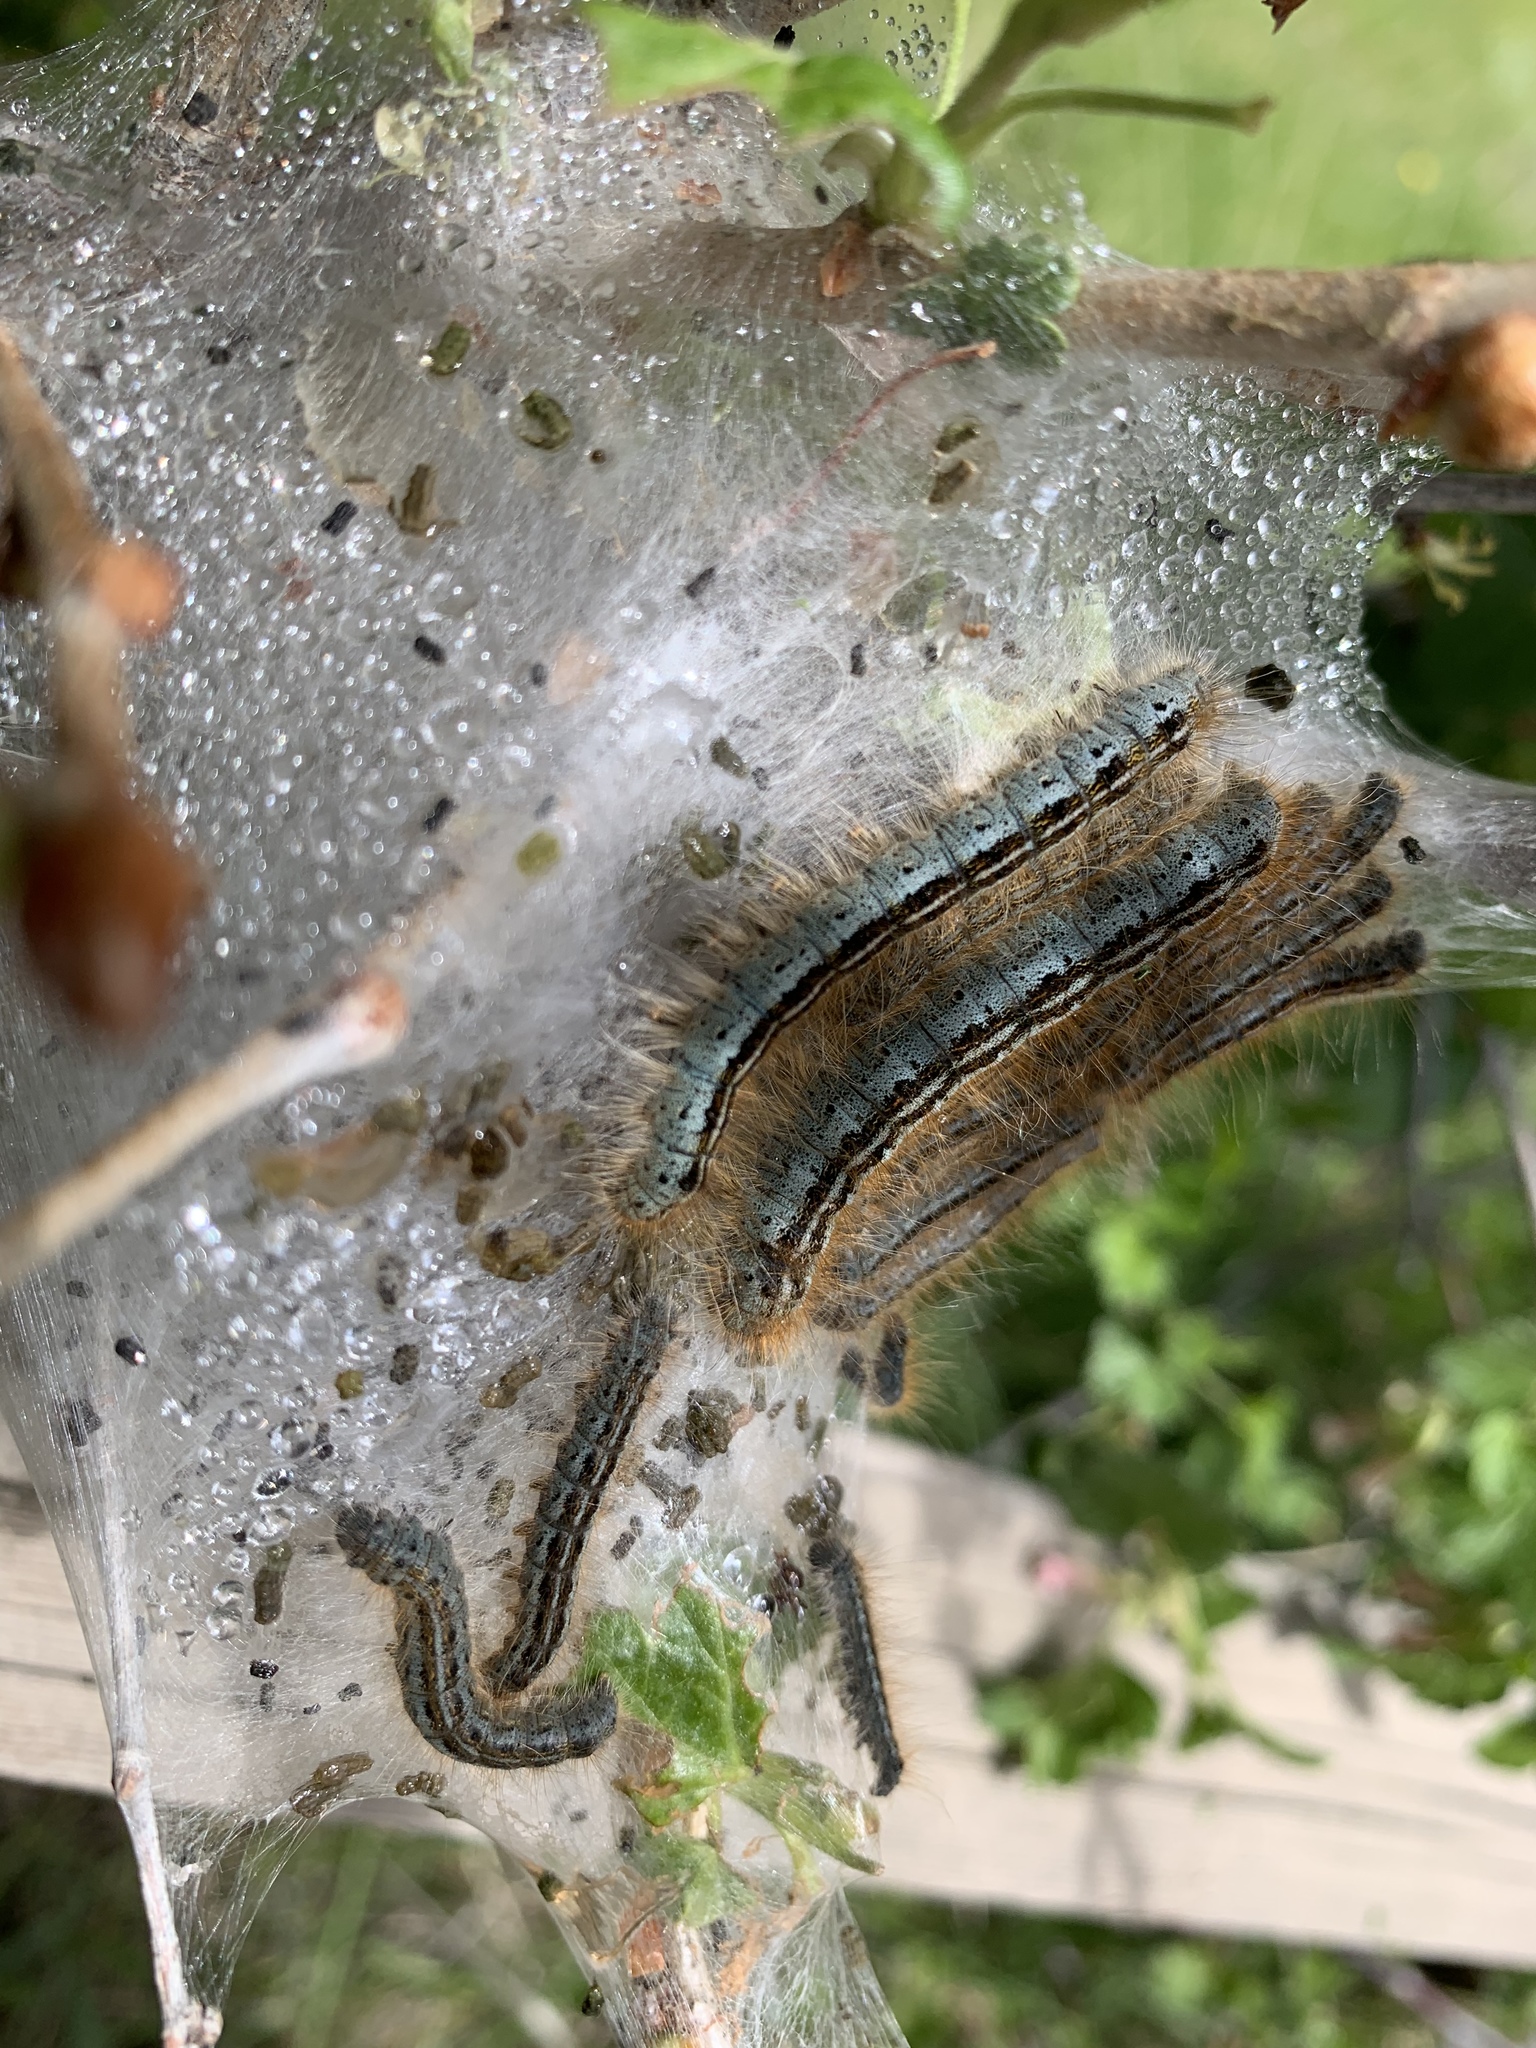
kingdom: Animalia
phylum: Arthropoda
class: Insecta
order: Lepidoptera
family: Lasiocampidae
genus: Malacosoma
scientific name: Malacosoma californica
